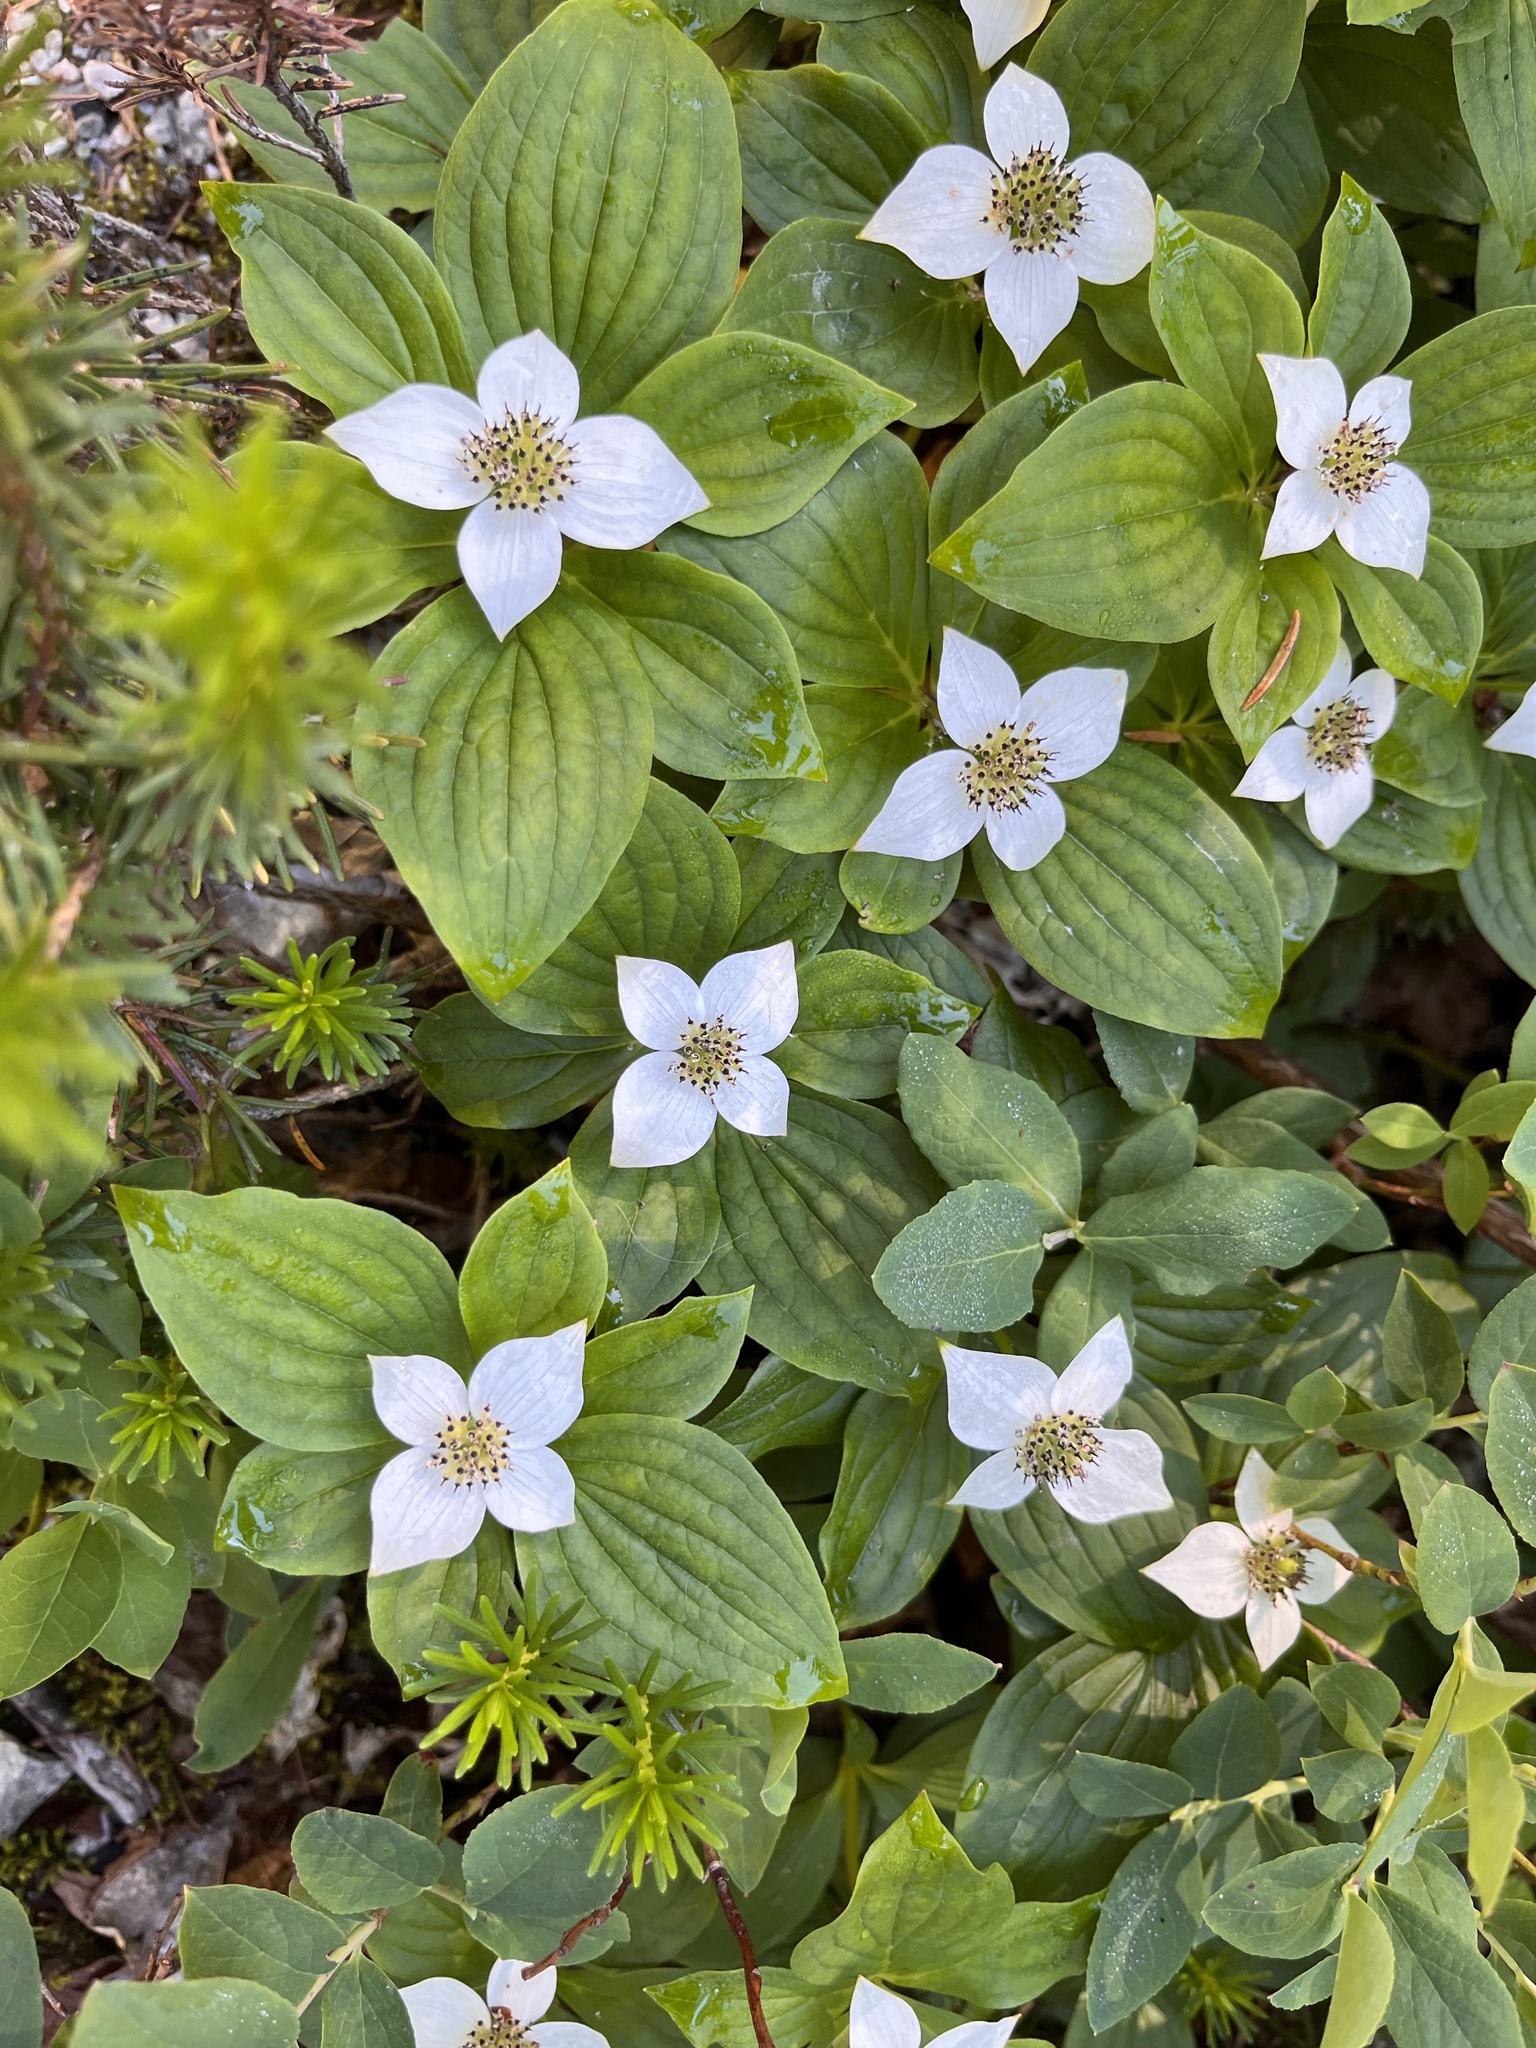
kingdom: Plantae
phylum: Tracheophyta
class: Magnoliopsida
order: Cornales
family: Cornaceae
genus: Cornus
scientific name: Cornus unalaschkensis
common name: Alaska bunchberry
